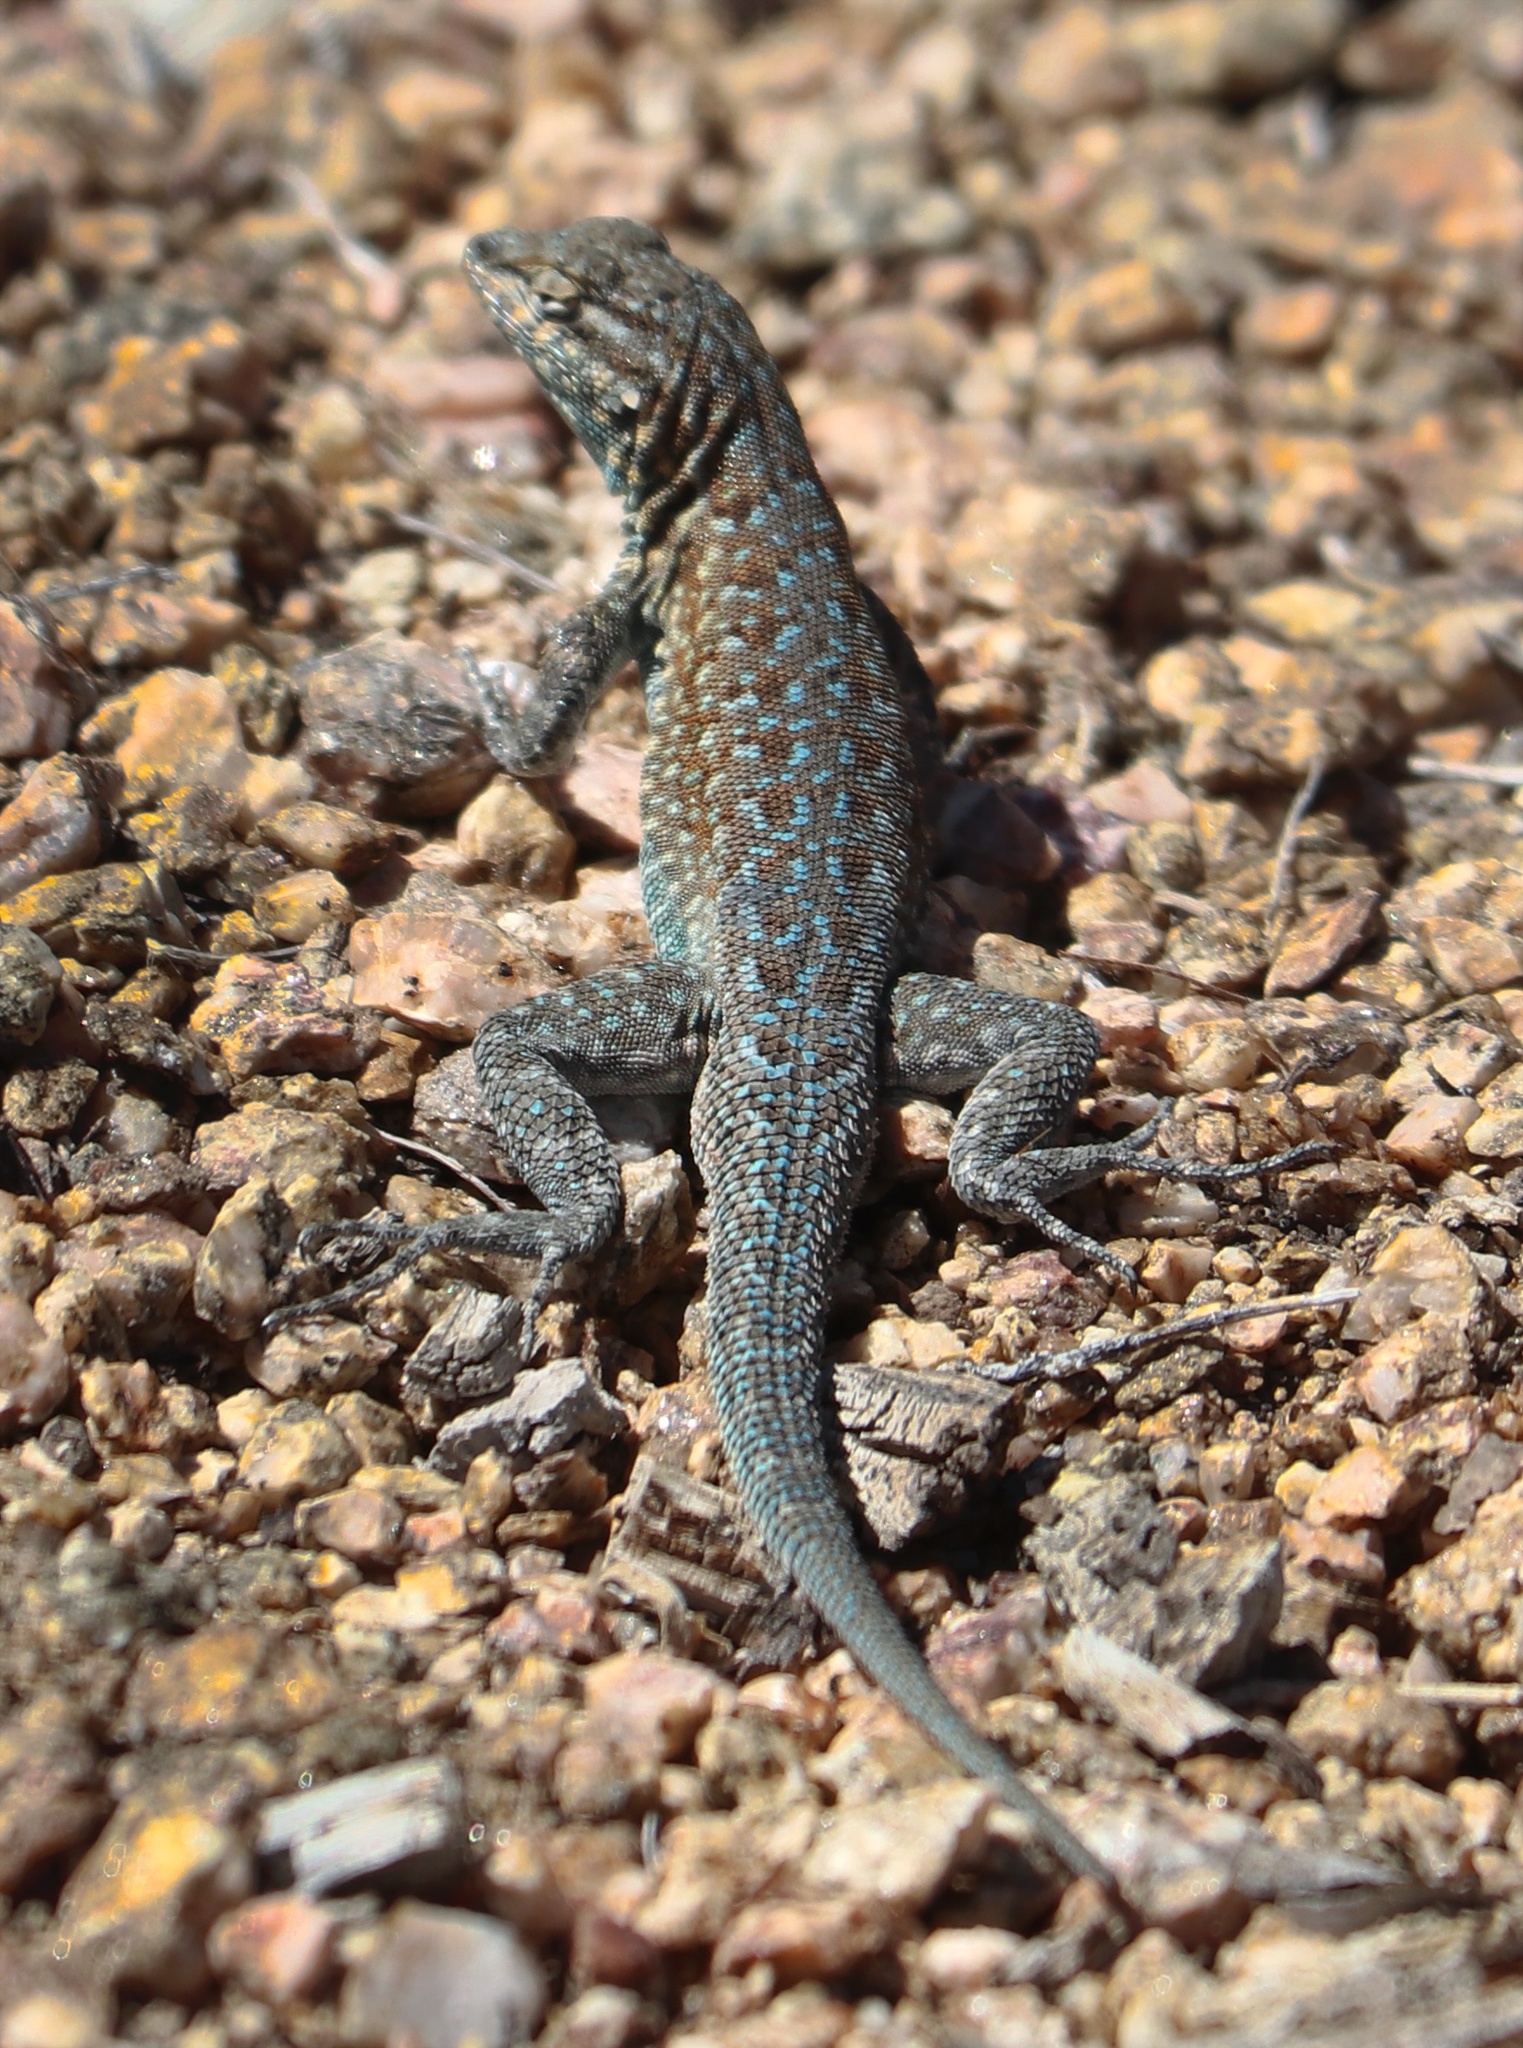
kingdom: Animalia
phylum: Chordata
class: Squamata
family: Phrynosomatidae
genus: Uta
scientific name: Uta stansburiana
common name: Side-blotched lizard
